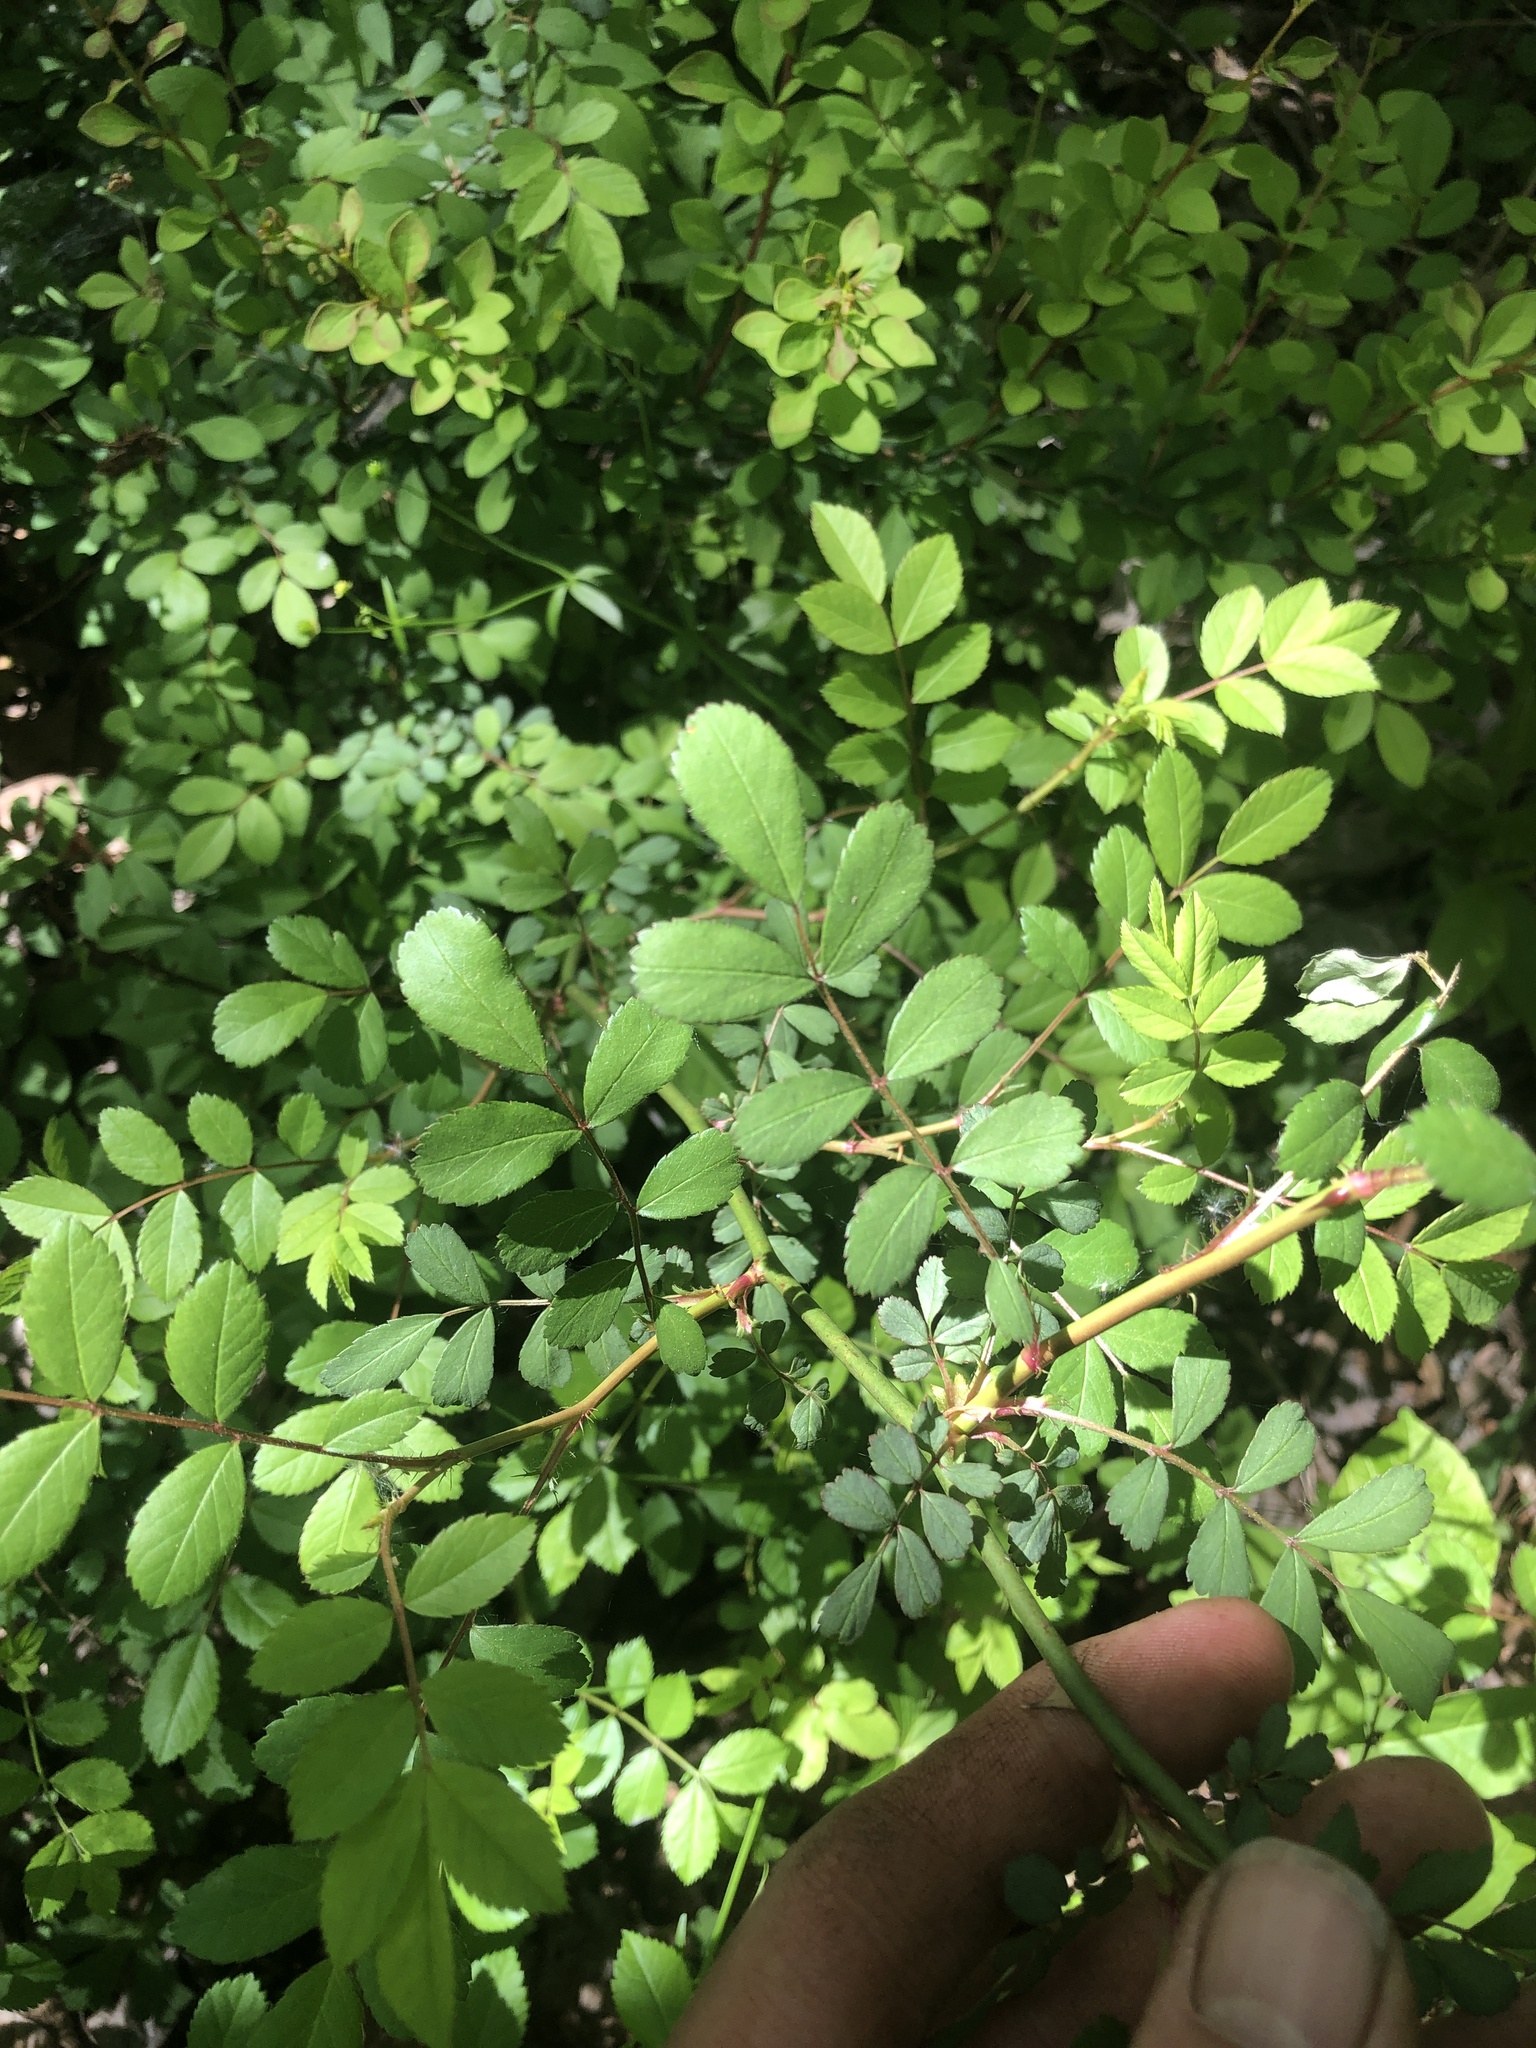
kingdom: Plantae
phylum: Tracheophyta
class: Magnoliopsida
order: Rosales
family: Rosaceae
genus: Rosa
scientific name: Rosa multiflora
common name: Multiflora rose
